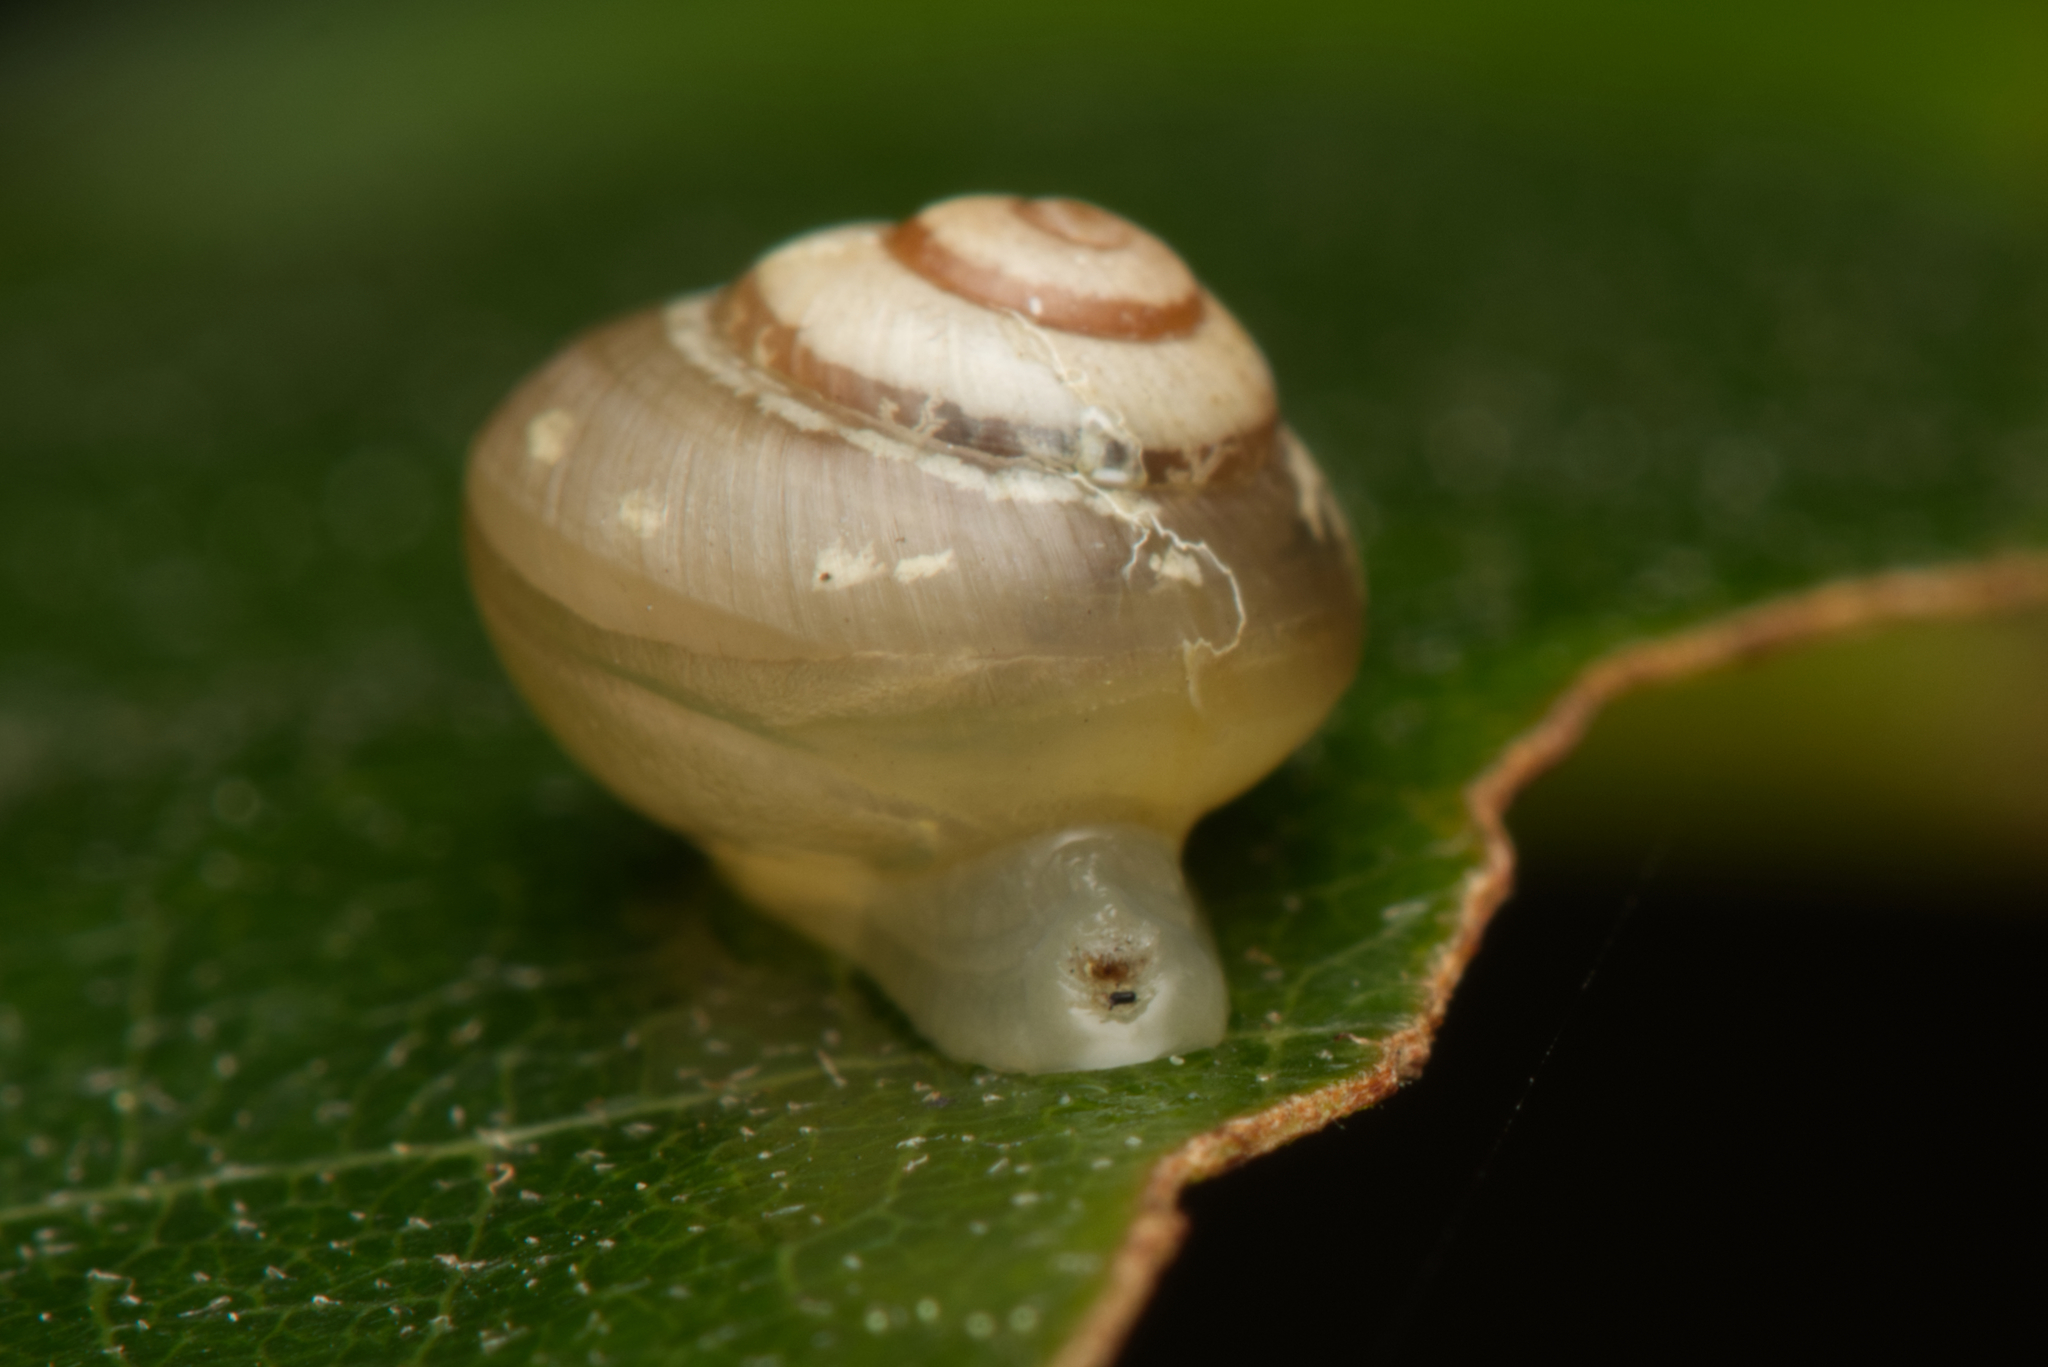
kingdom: Animalia
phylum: Mollusca
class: Gastropoda
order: Stylommatophora
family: Euconulidae
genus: Coneuplecta
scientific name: Coneuplecta pampini
